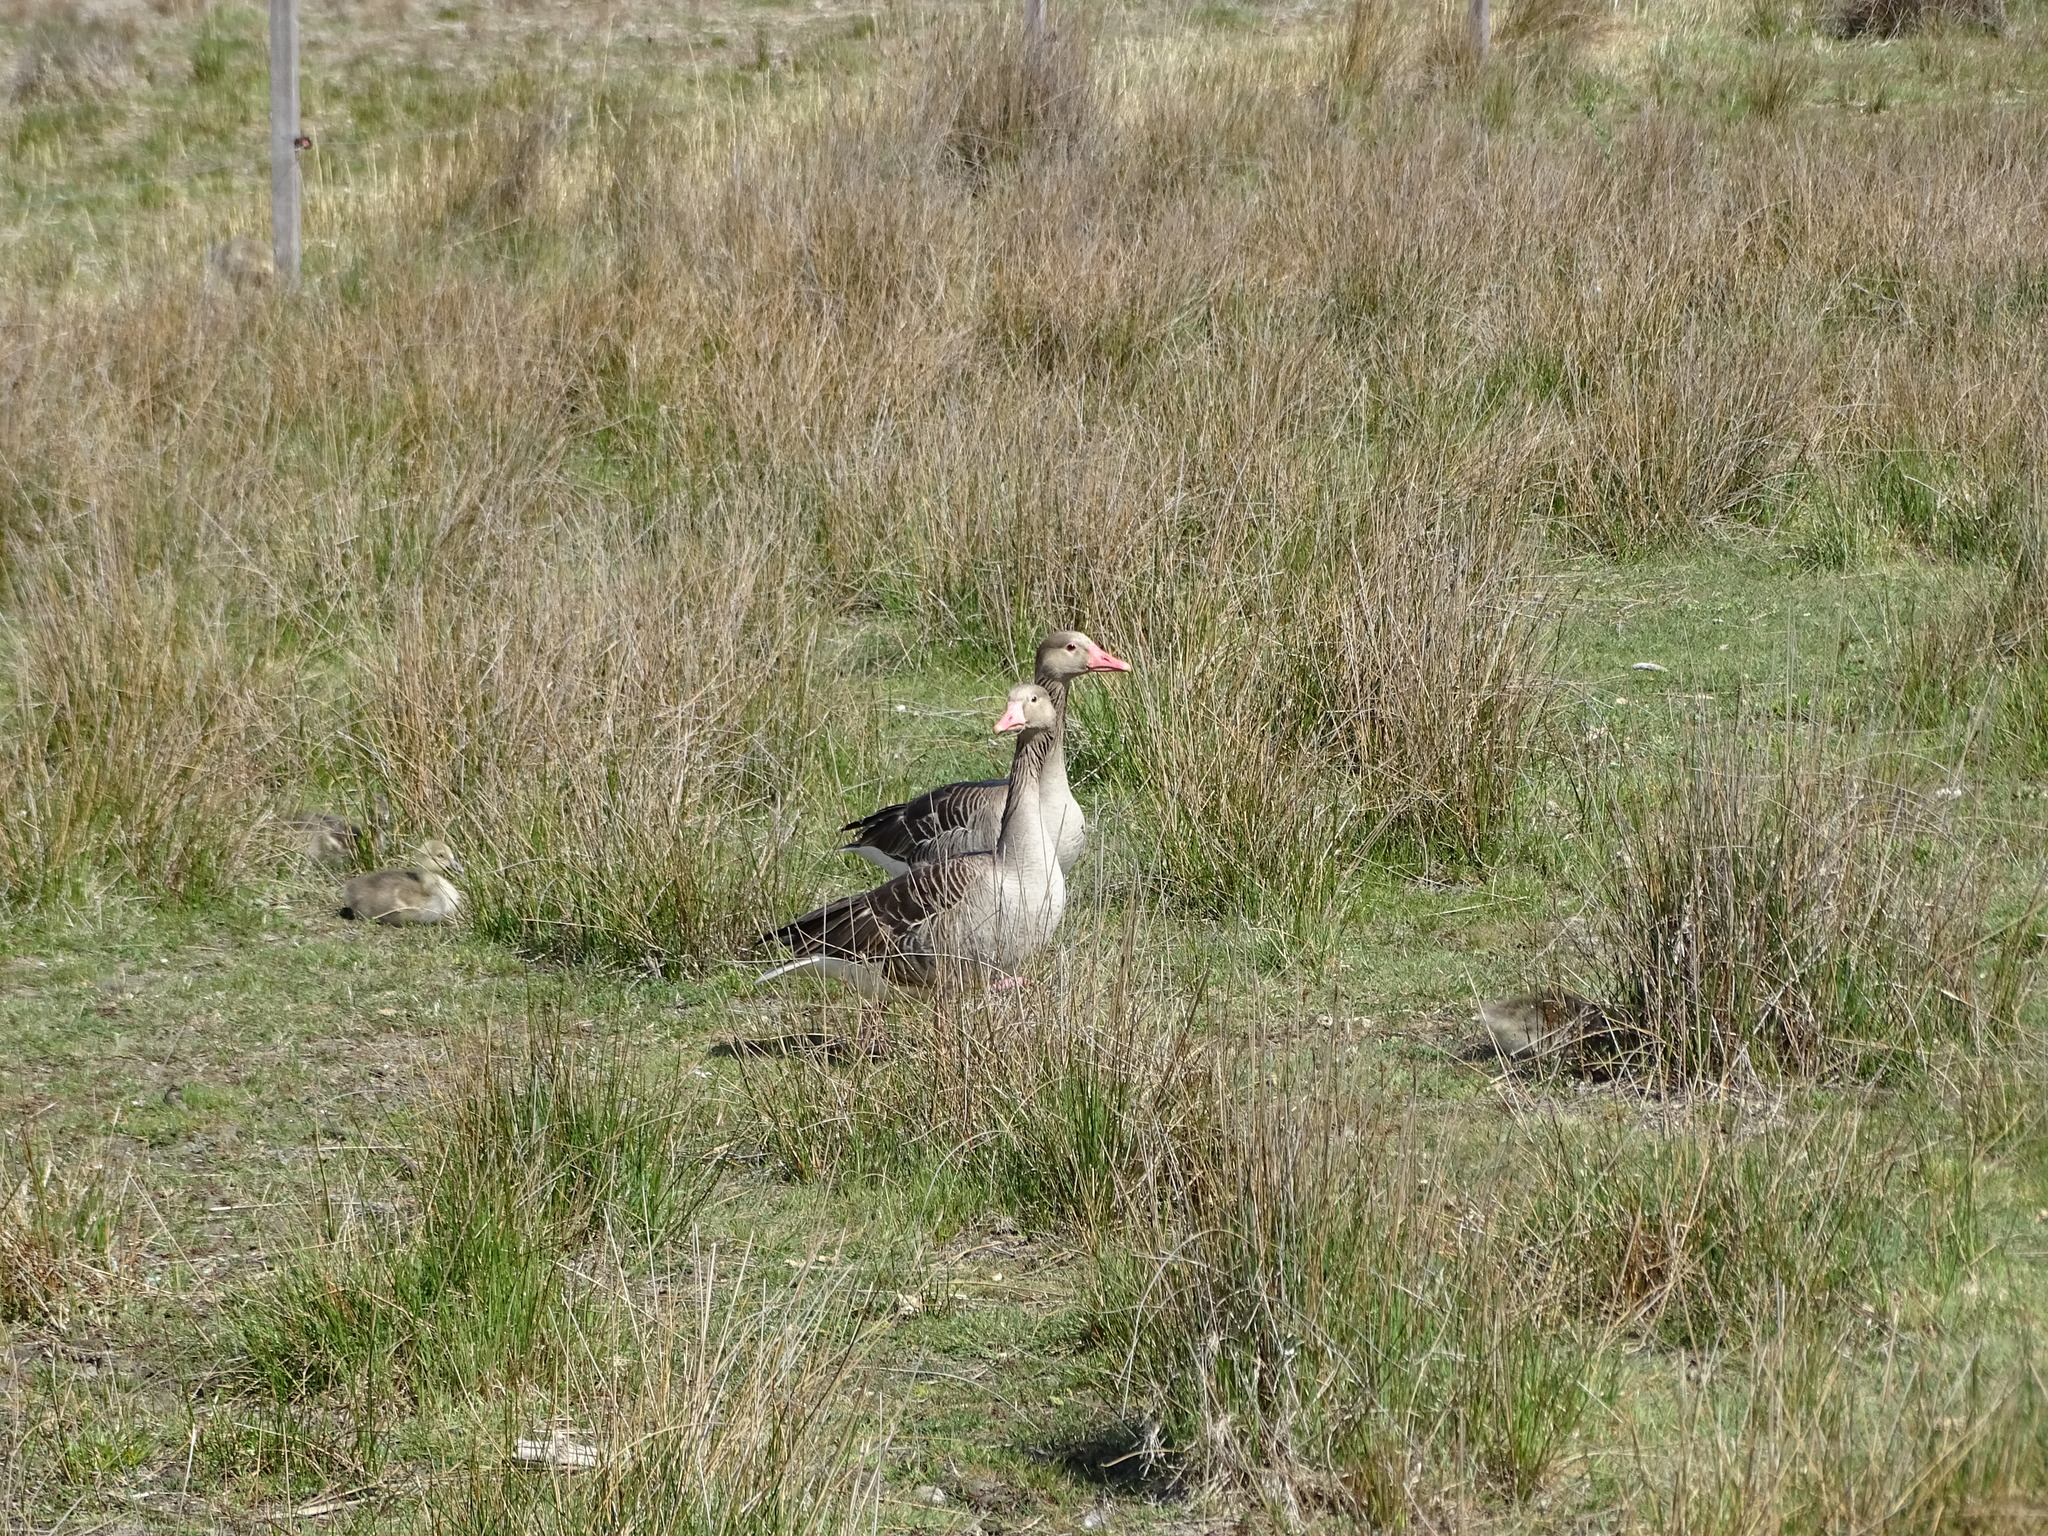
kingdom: Animalia
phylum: Chordata
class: Aves
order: Anseriformes
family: Anatidae
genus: Anser
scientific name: Anser anser
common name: Greylag goose
